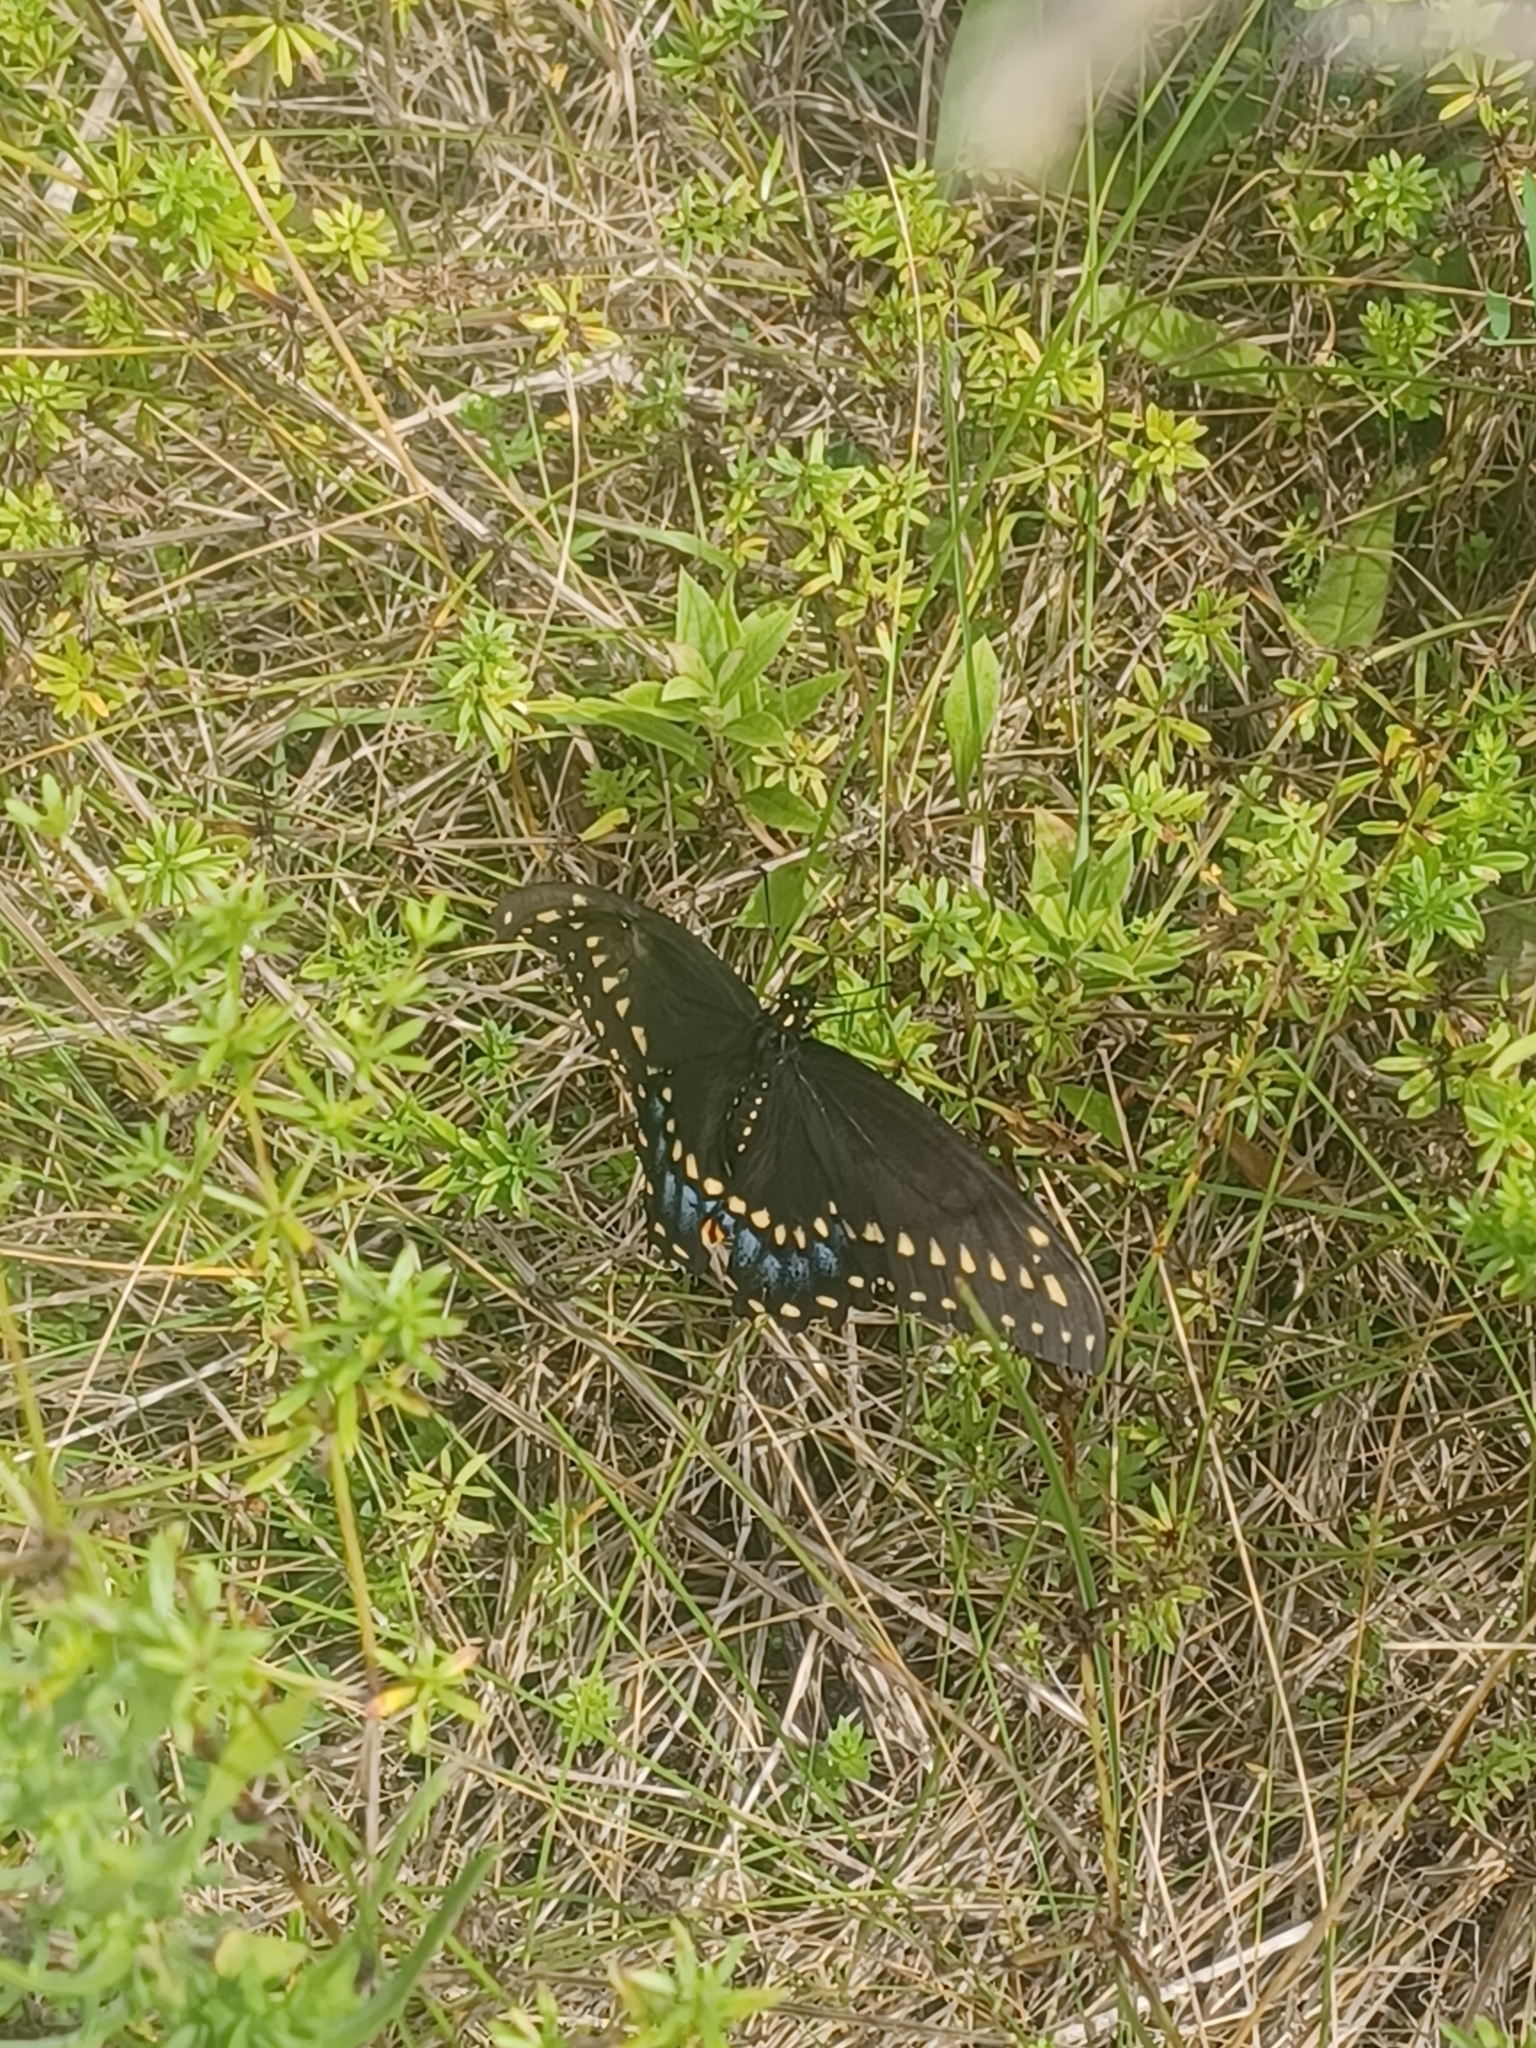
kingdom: Animalia
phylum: Arthropoda
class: Insecta
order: Lepidoptera
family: Papilionidae
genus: Papilio
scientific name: Papilio polyxenes
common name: Black swallowtail
